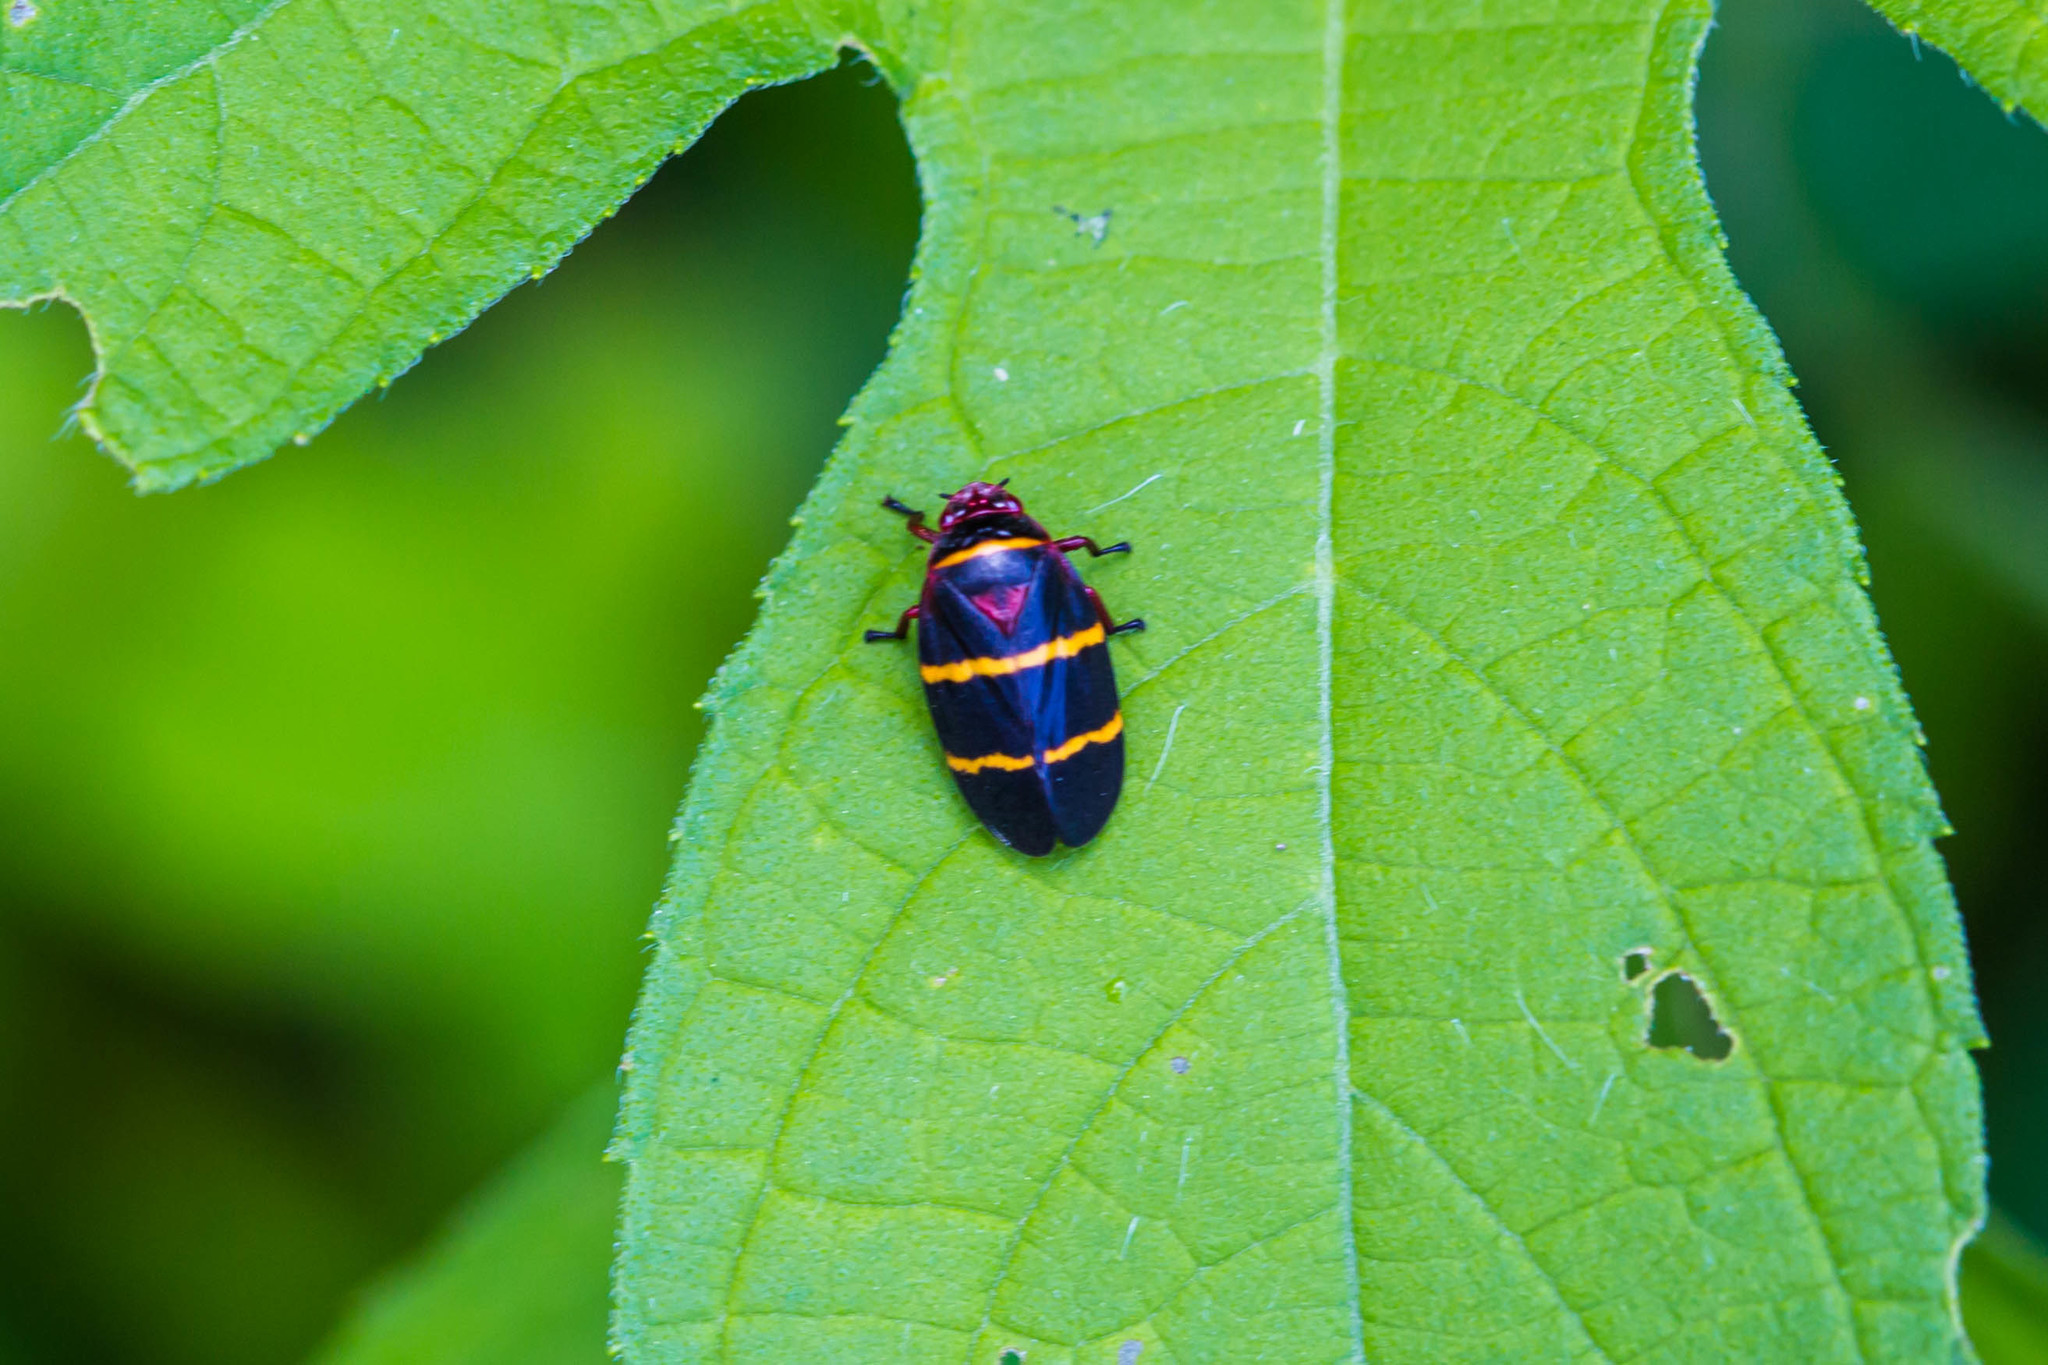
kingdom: Animalia
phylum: Arthropoda
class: Insecta
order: Hemiptera
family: Cercopidae
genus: Prosapia
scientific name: Prosapia bicincta
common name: Twolined spittlebug
